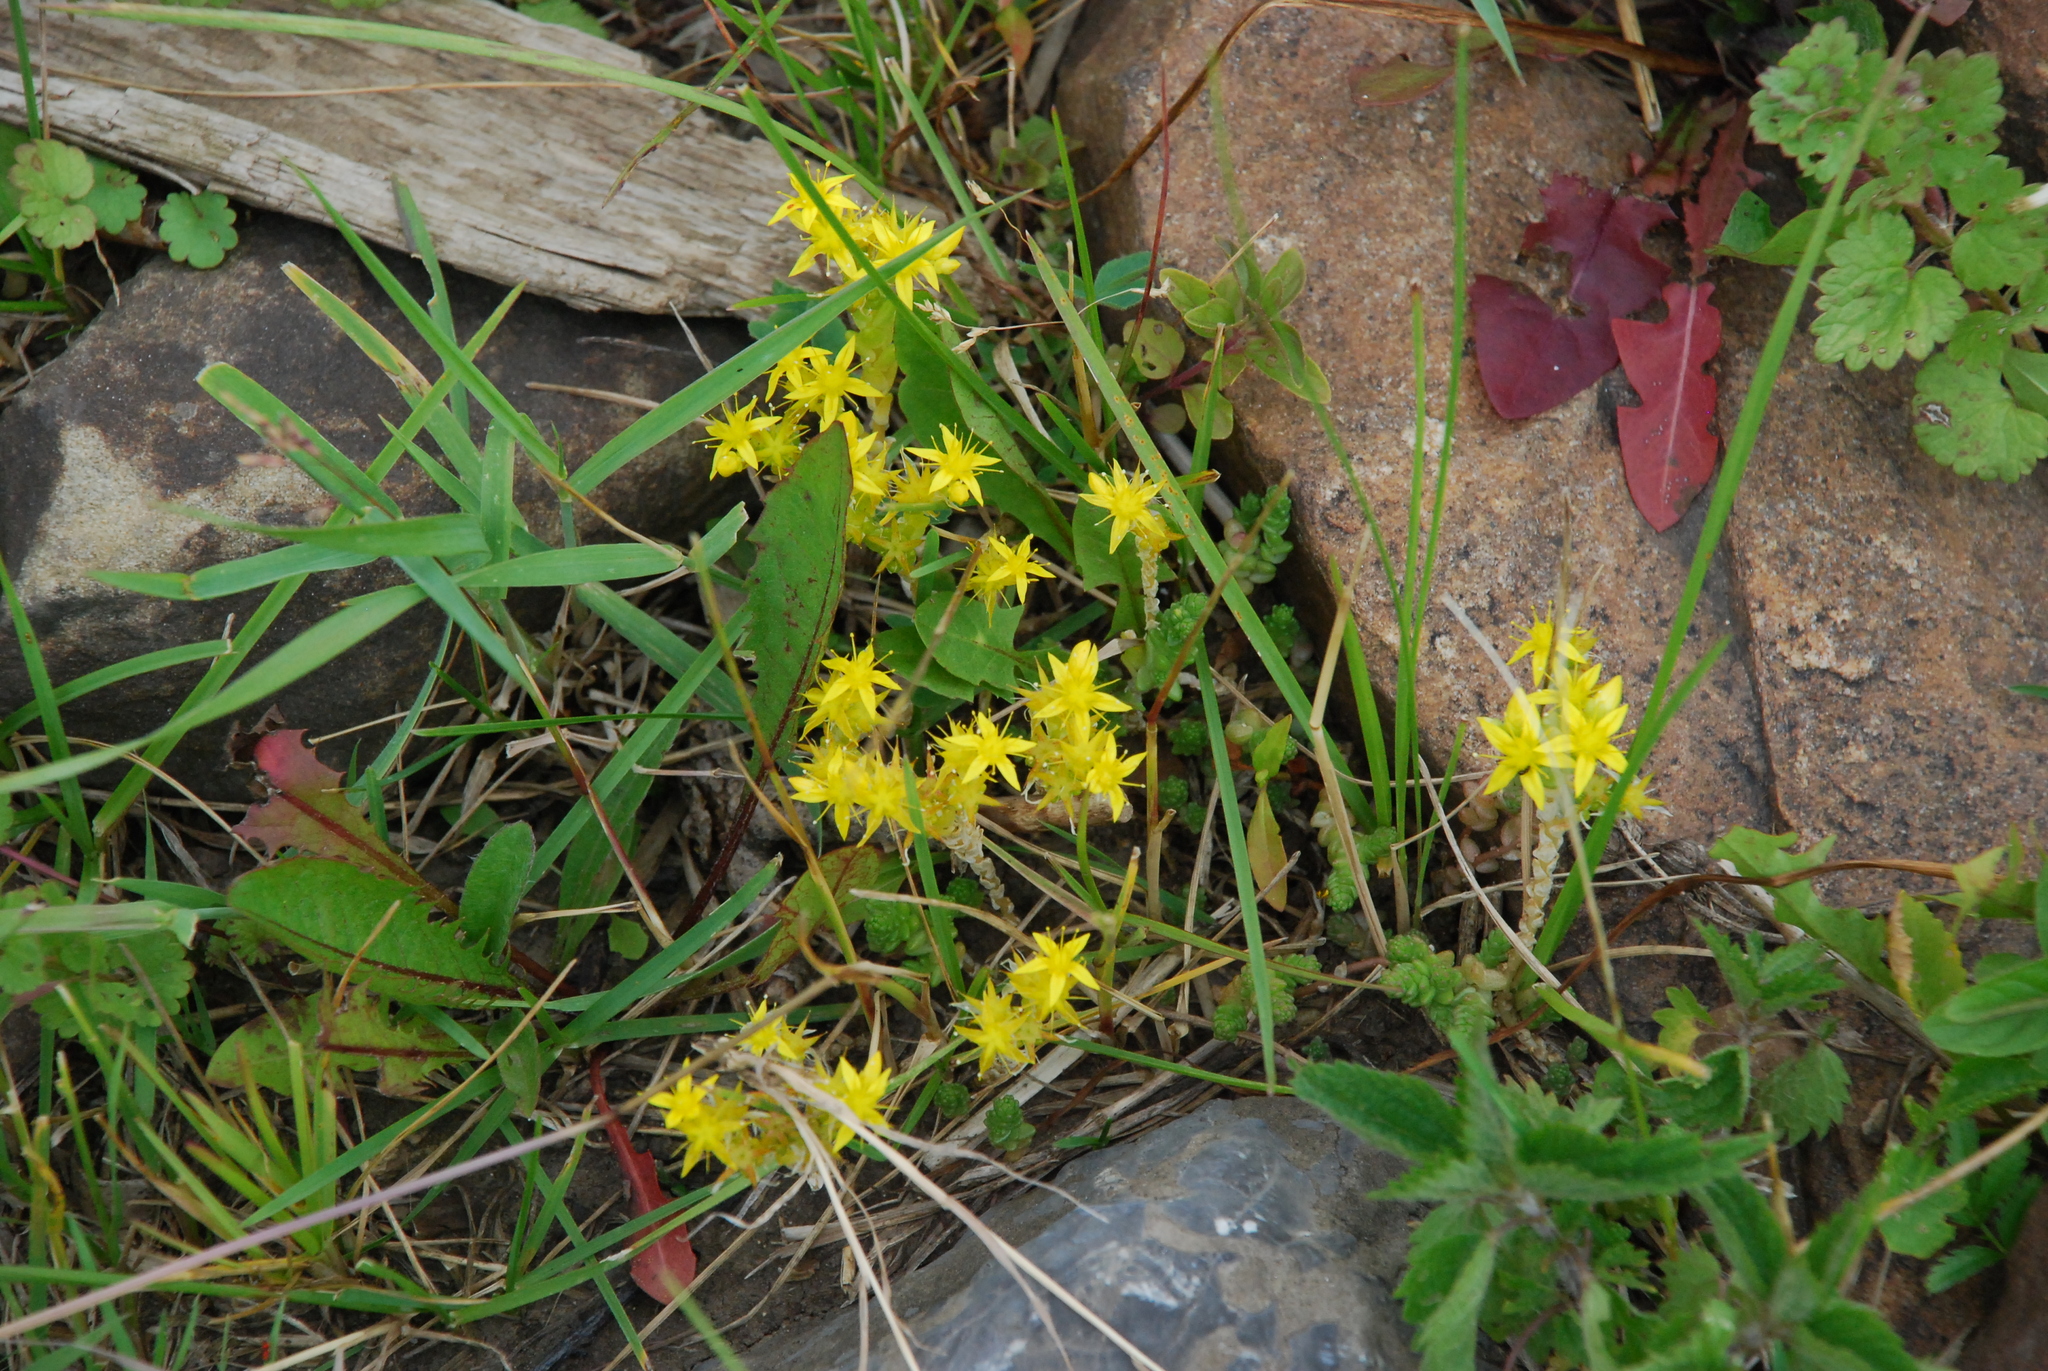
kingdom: Plantae
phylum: Tracheophyta
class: Magnoliopsida
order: Saxifragales
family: Crassulaceae
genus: Sedum
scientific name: Sedum acre
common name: Biting stonecrop
